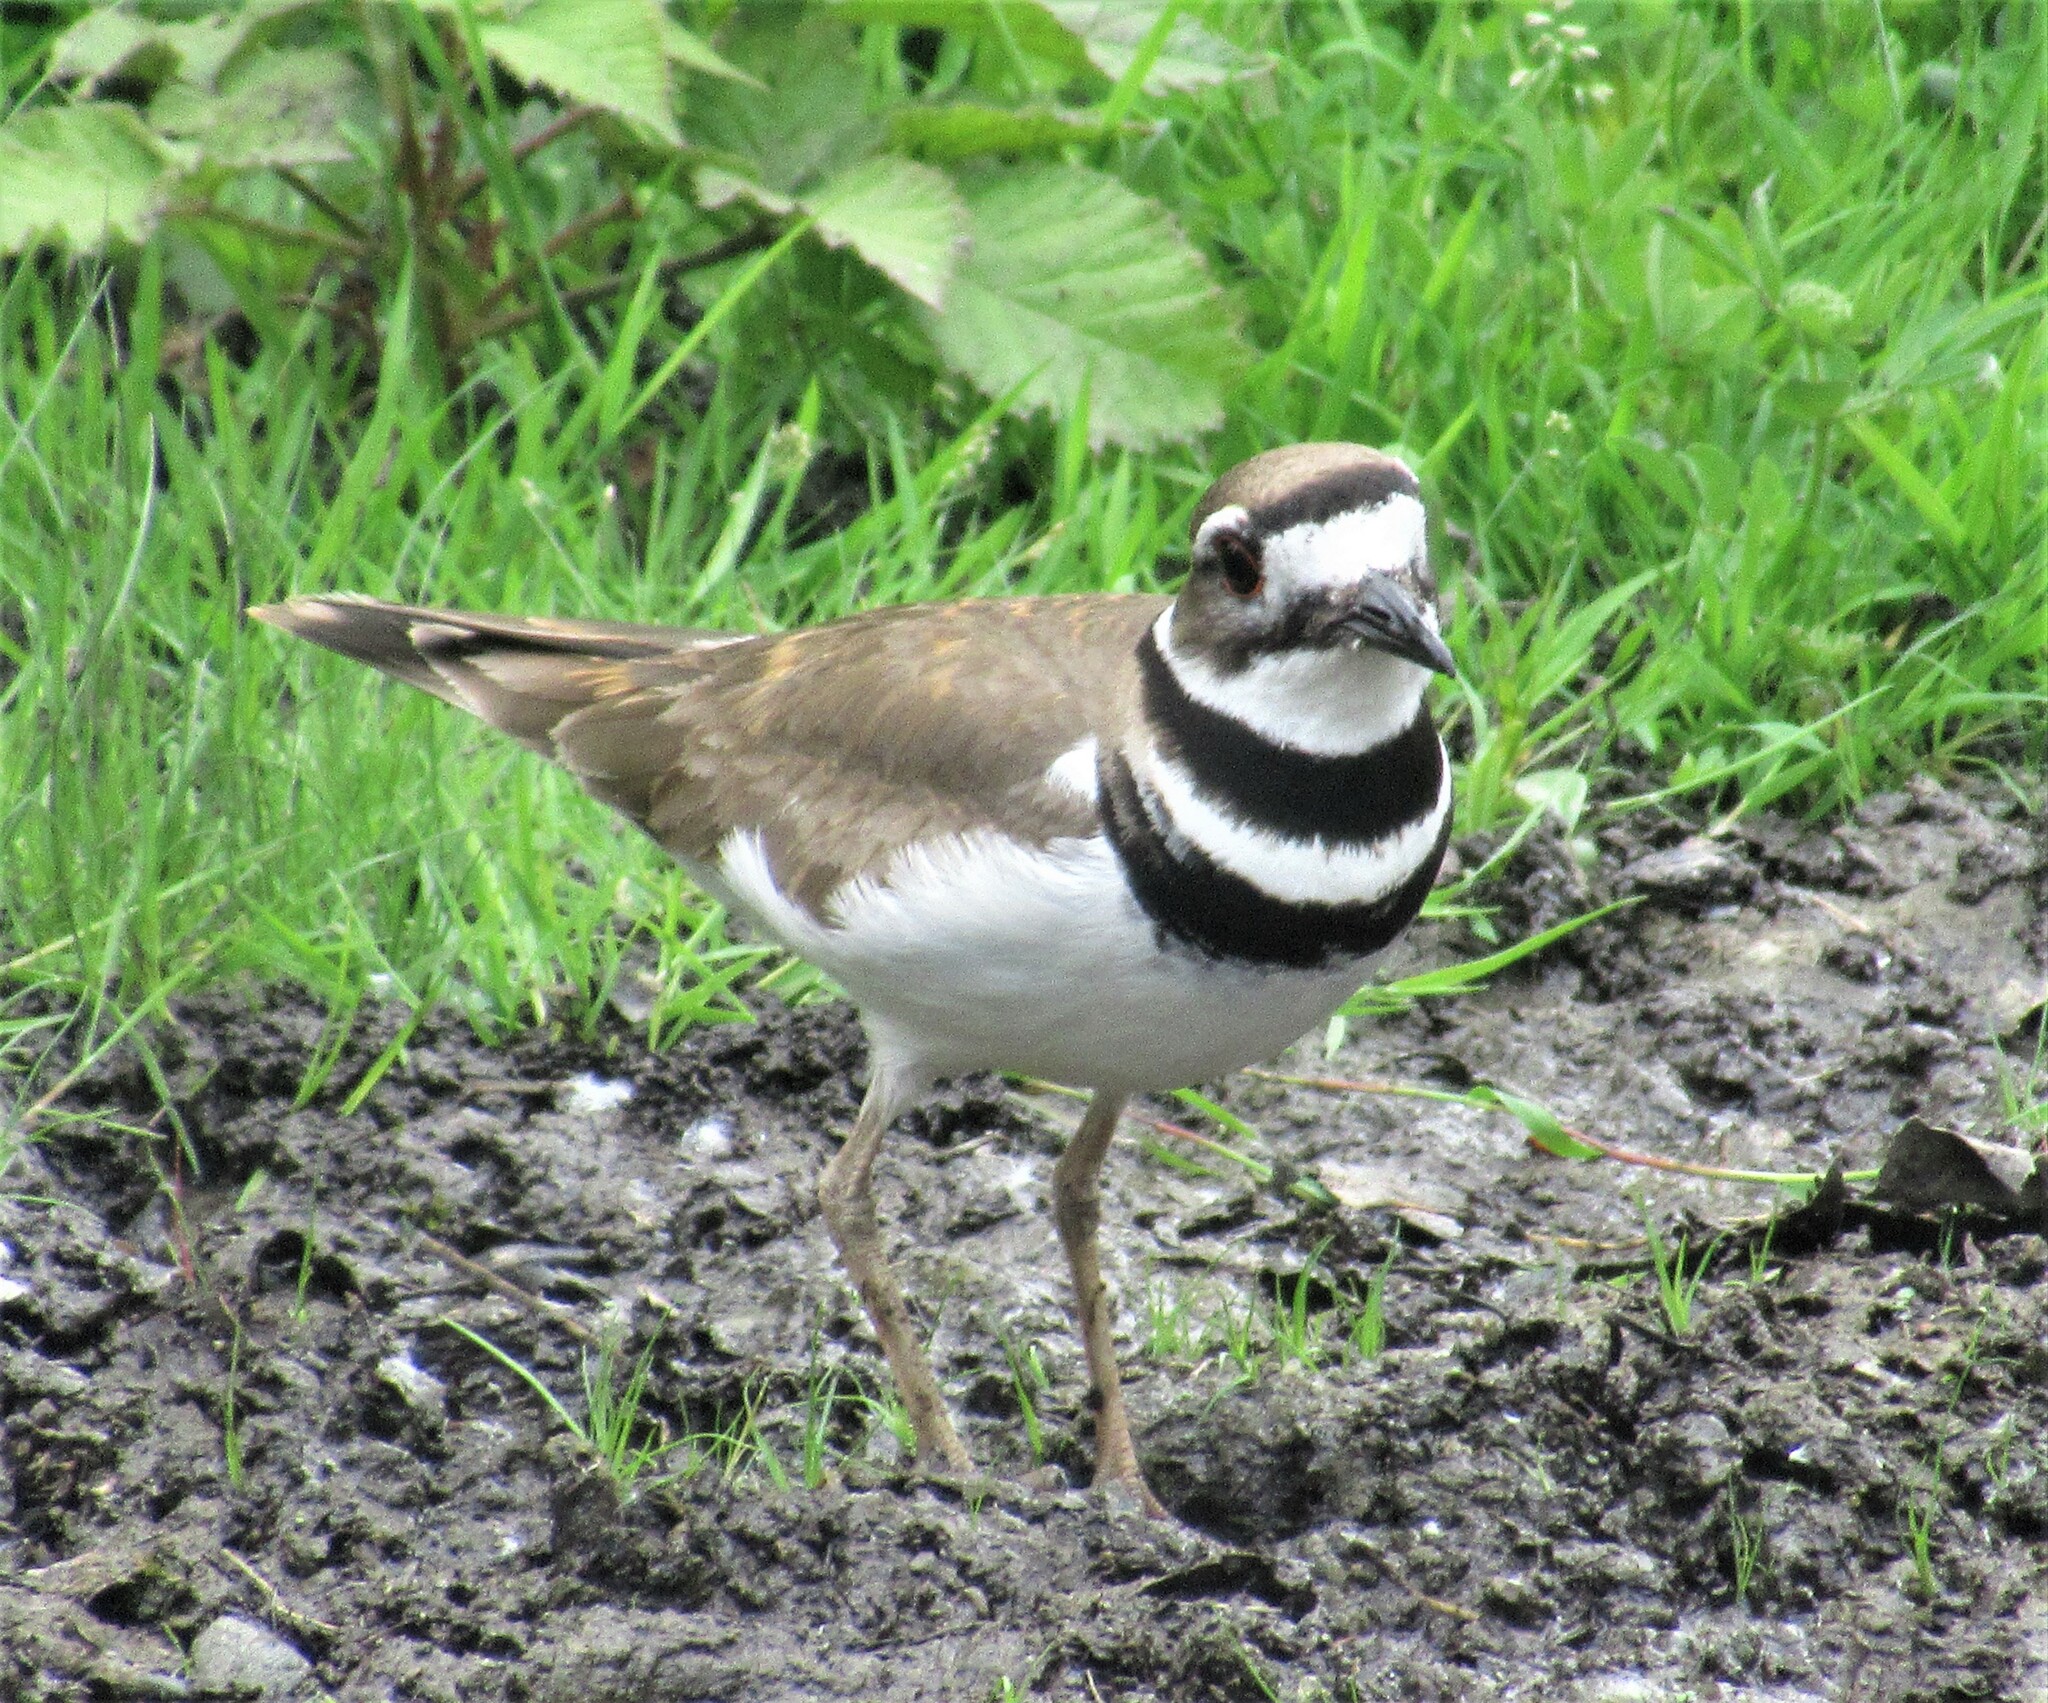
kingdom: Animalia
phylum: Chordata
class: Aves
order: Charadriiformes
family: Charadriidae
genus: Charadrius
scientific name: Charadrius vociferus
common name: Killdeer
